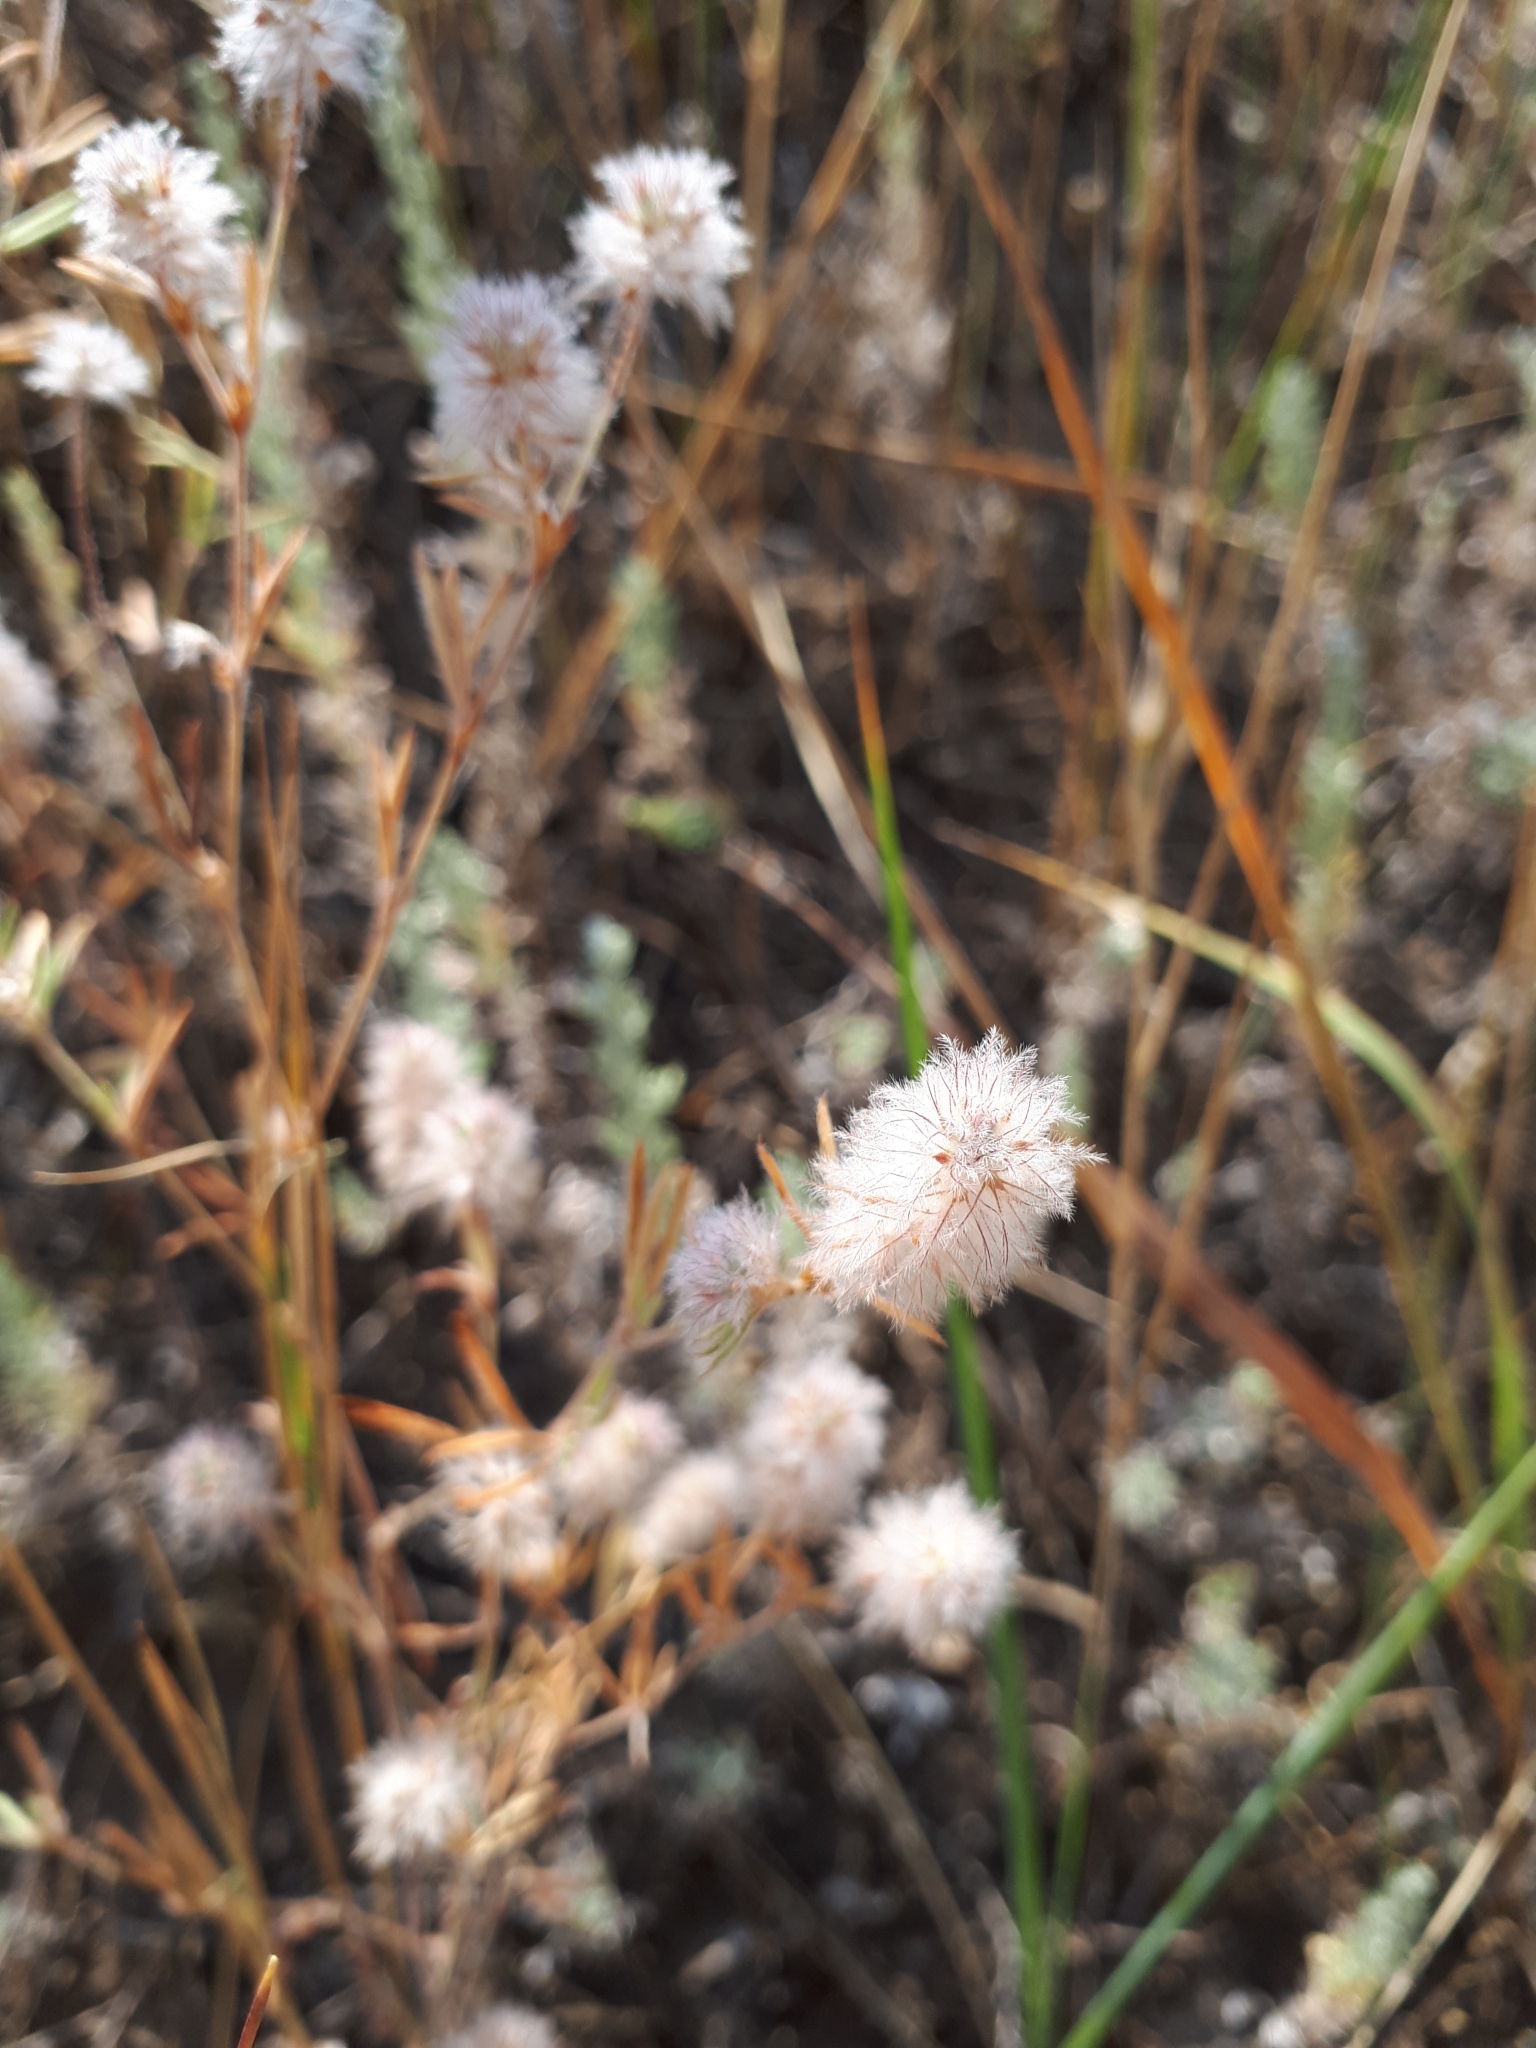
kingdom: Plantae
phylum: Tracheophyta
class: Magnoliopsida
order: Fabales
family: Fabaceae
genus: Trifolium
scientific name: Trifolium arvense
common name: Hare's-foot clover
